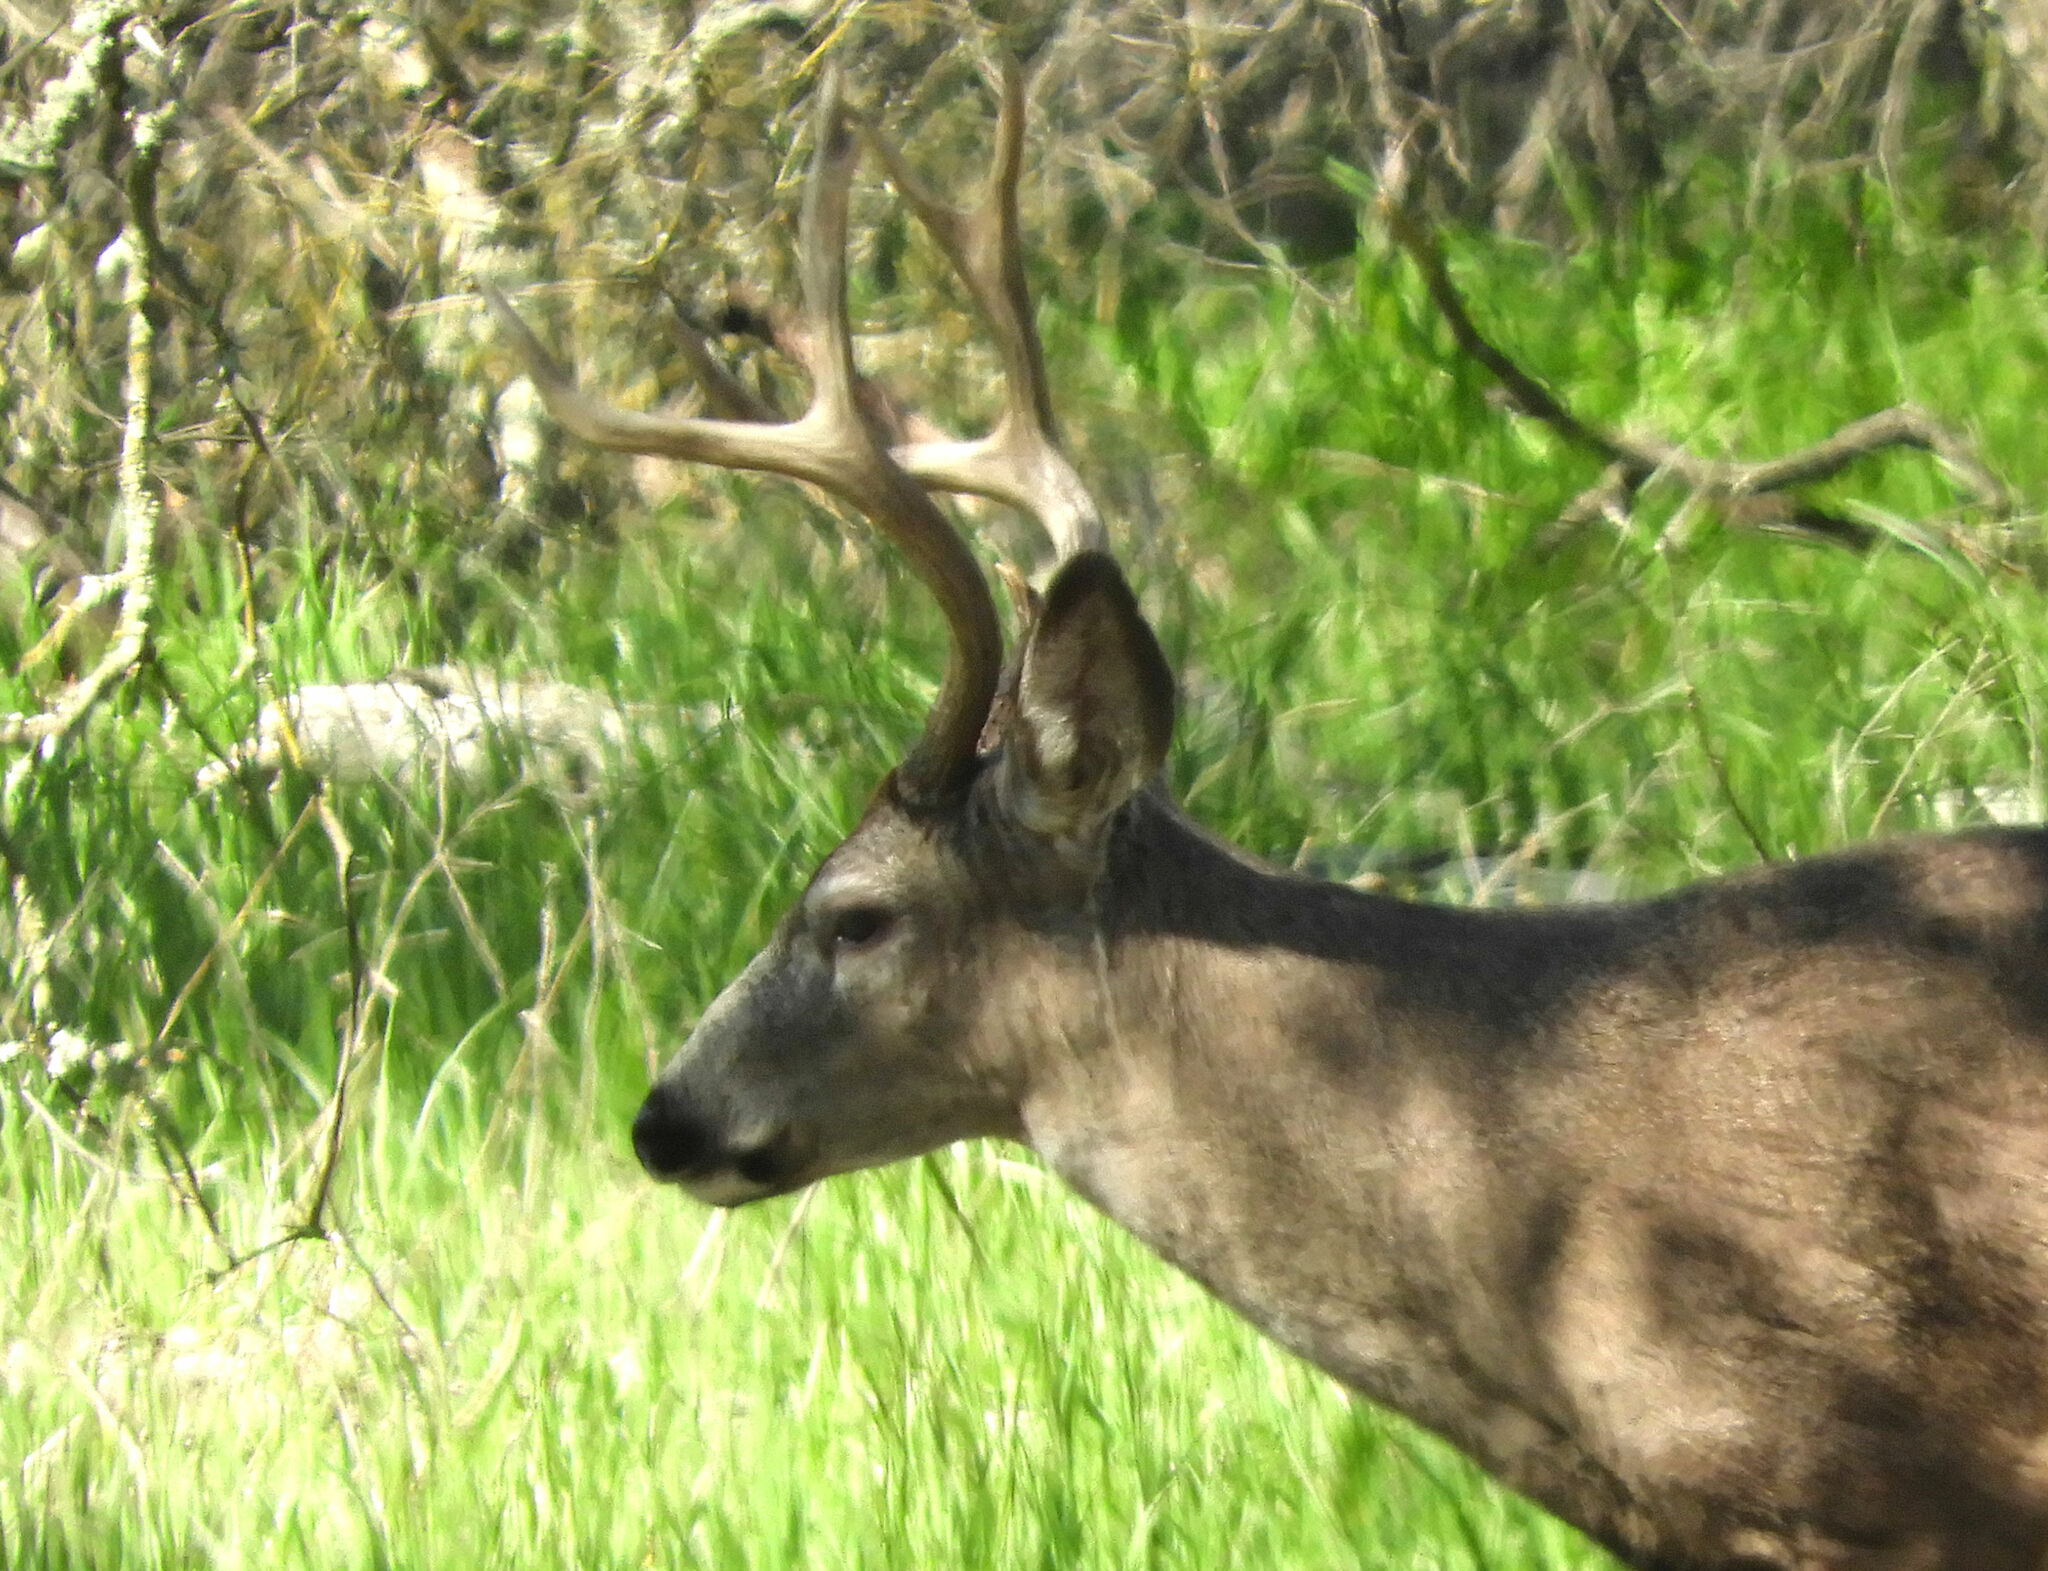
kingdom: Animalia
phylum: Chordata
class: Mammalia
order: Artiodactyla
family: Cervidae
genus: Odocoileus
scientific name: Odocoileus hemionus
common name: Mule deer
